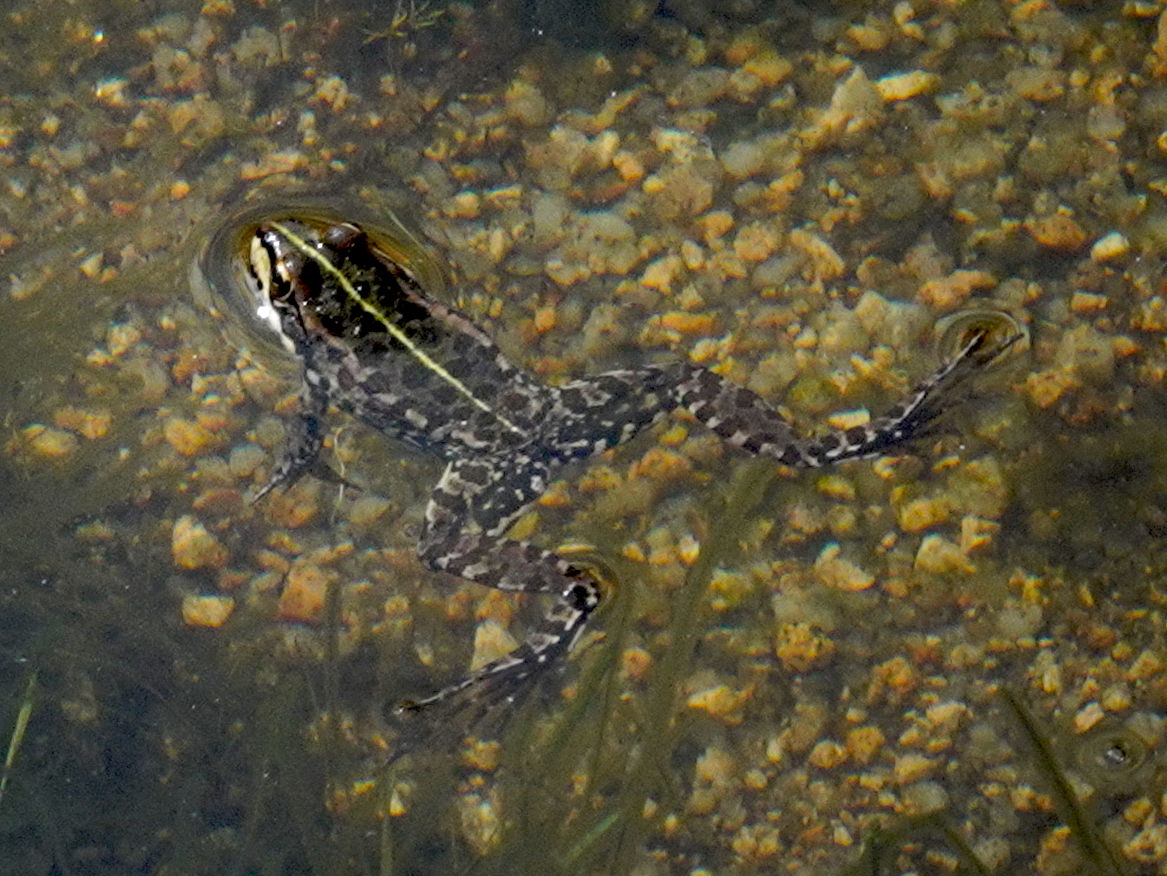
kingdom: Animalia
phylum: Chordata
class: Amphibia
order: Anura
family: Ranidae
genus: Pelophylax
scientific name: Pelophylax perezi
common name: Perez's frog
